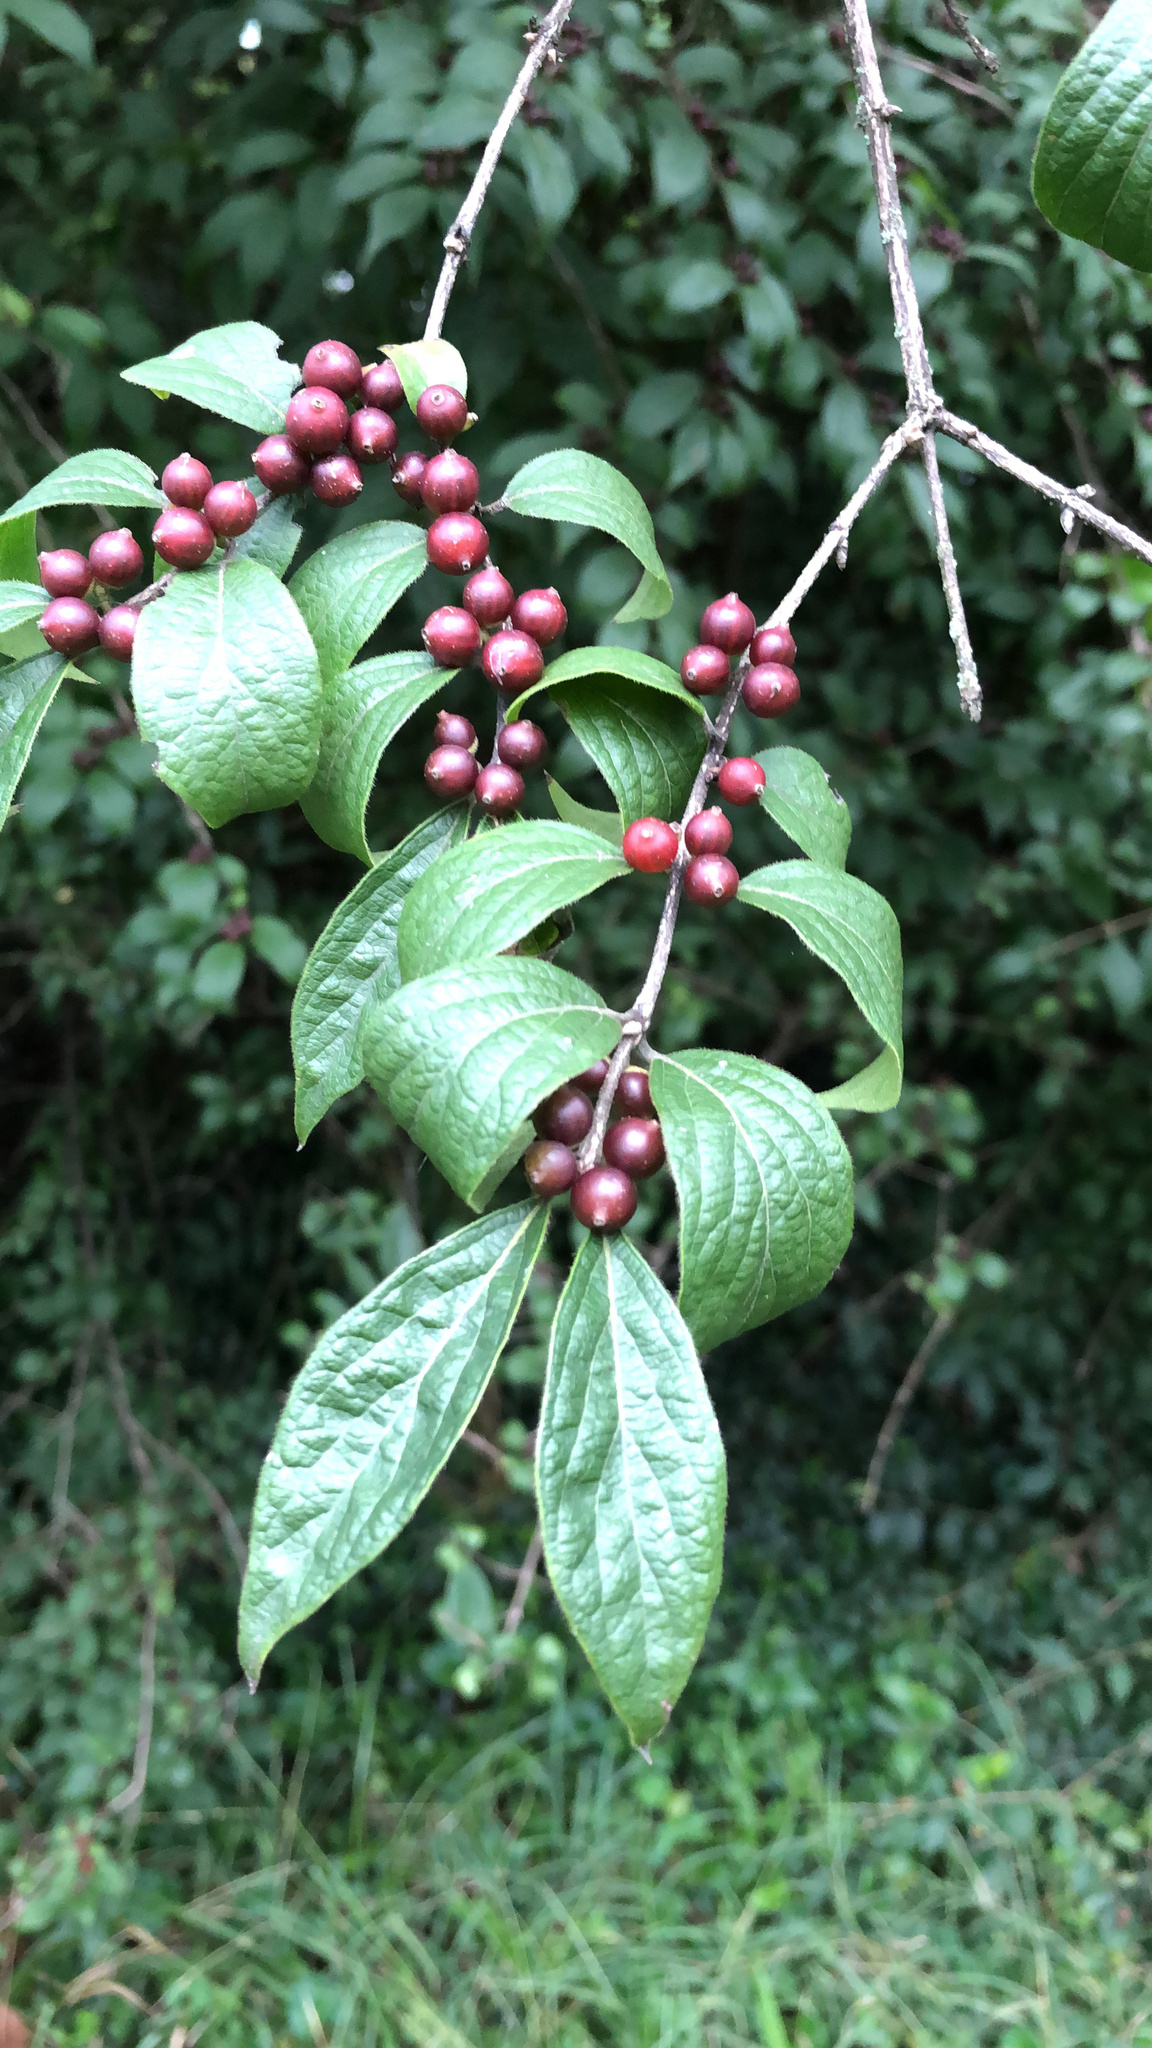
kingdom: Plantae
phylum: Tracheophyta
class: Magnoliopsida
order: Dipsacales
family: Caprifoliaceae
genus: Lonicera
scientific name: Lonicera maackii
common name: Amur honeysuckle
